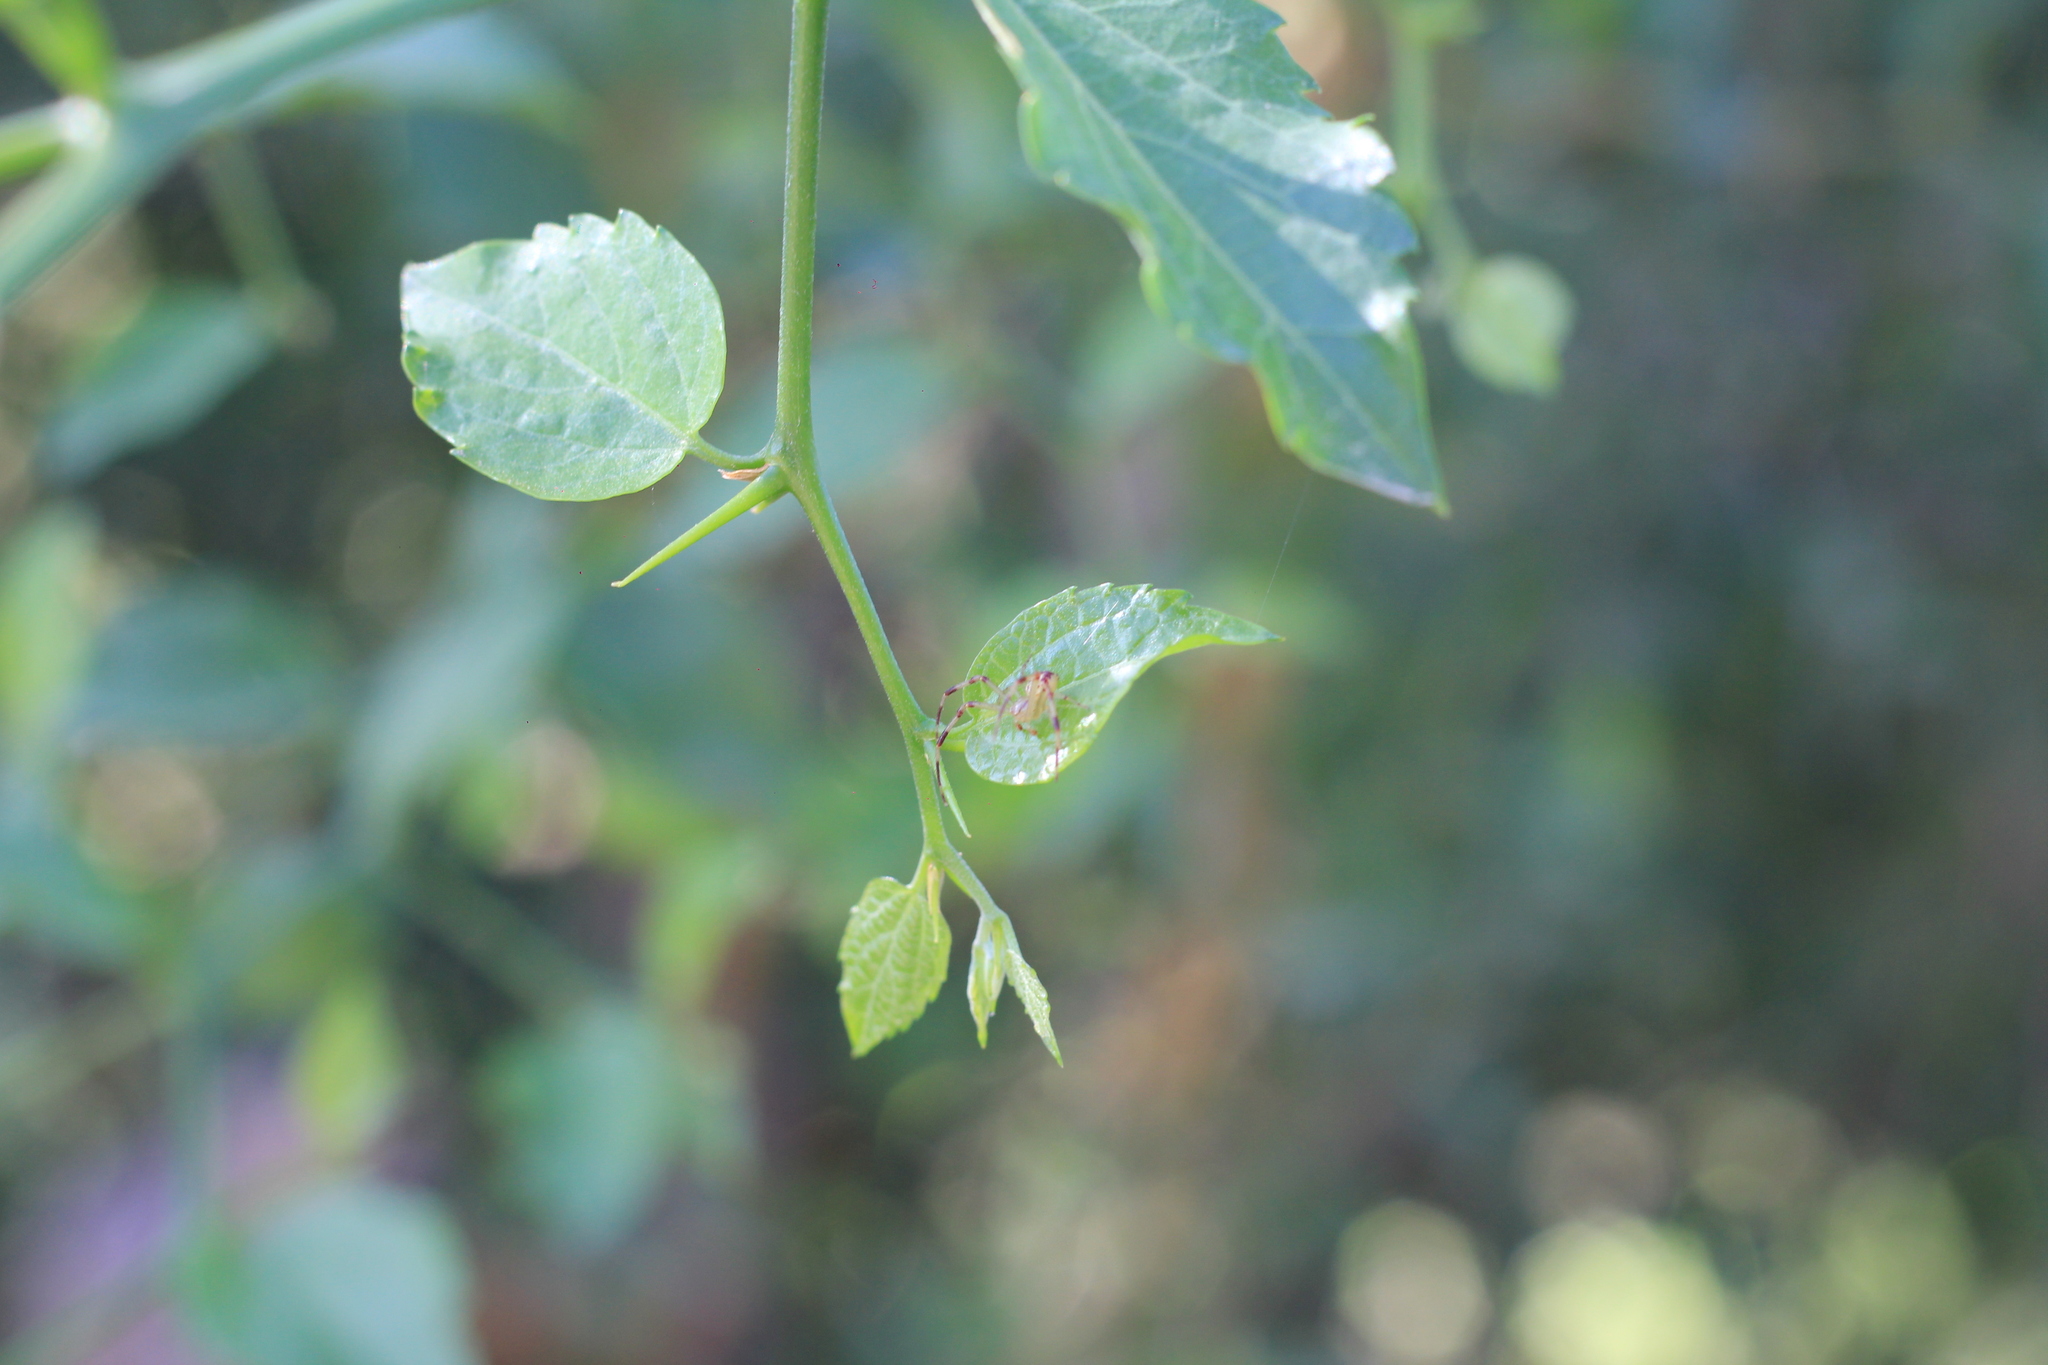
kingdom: Animalia
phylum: Arthropoda
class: Arachnida
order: Araneae
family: Thomisidae
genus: Misumenops
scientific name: Misumenops
